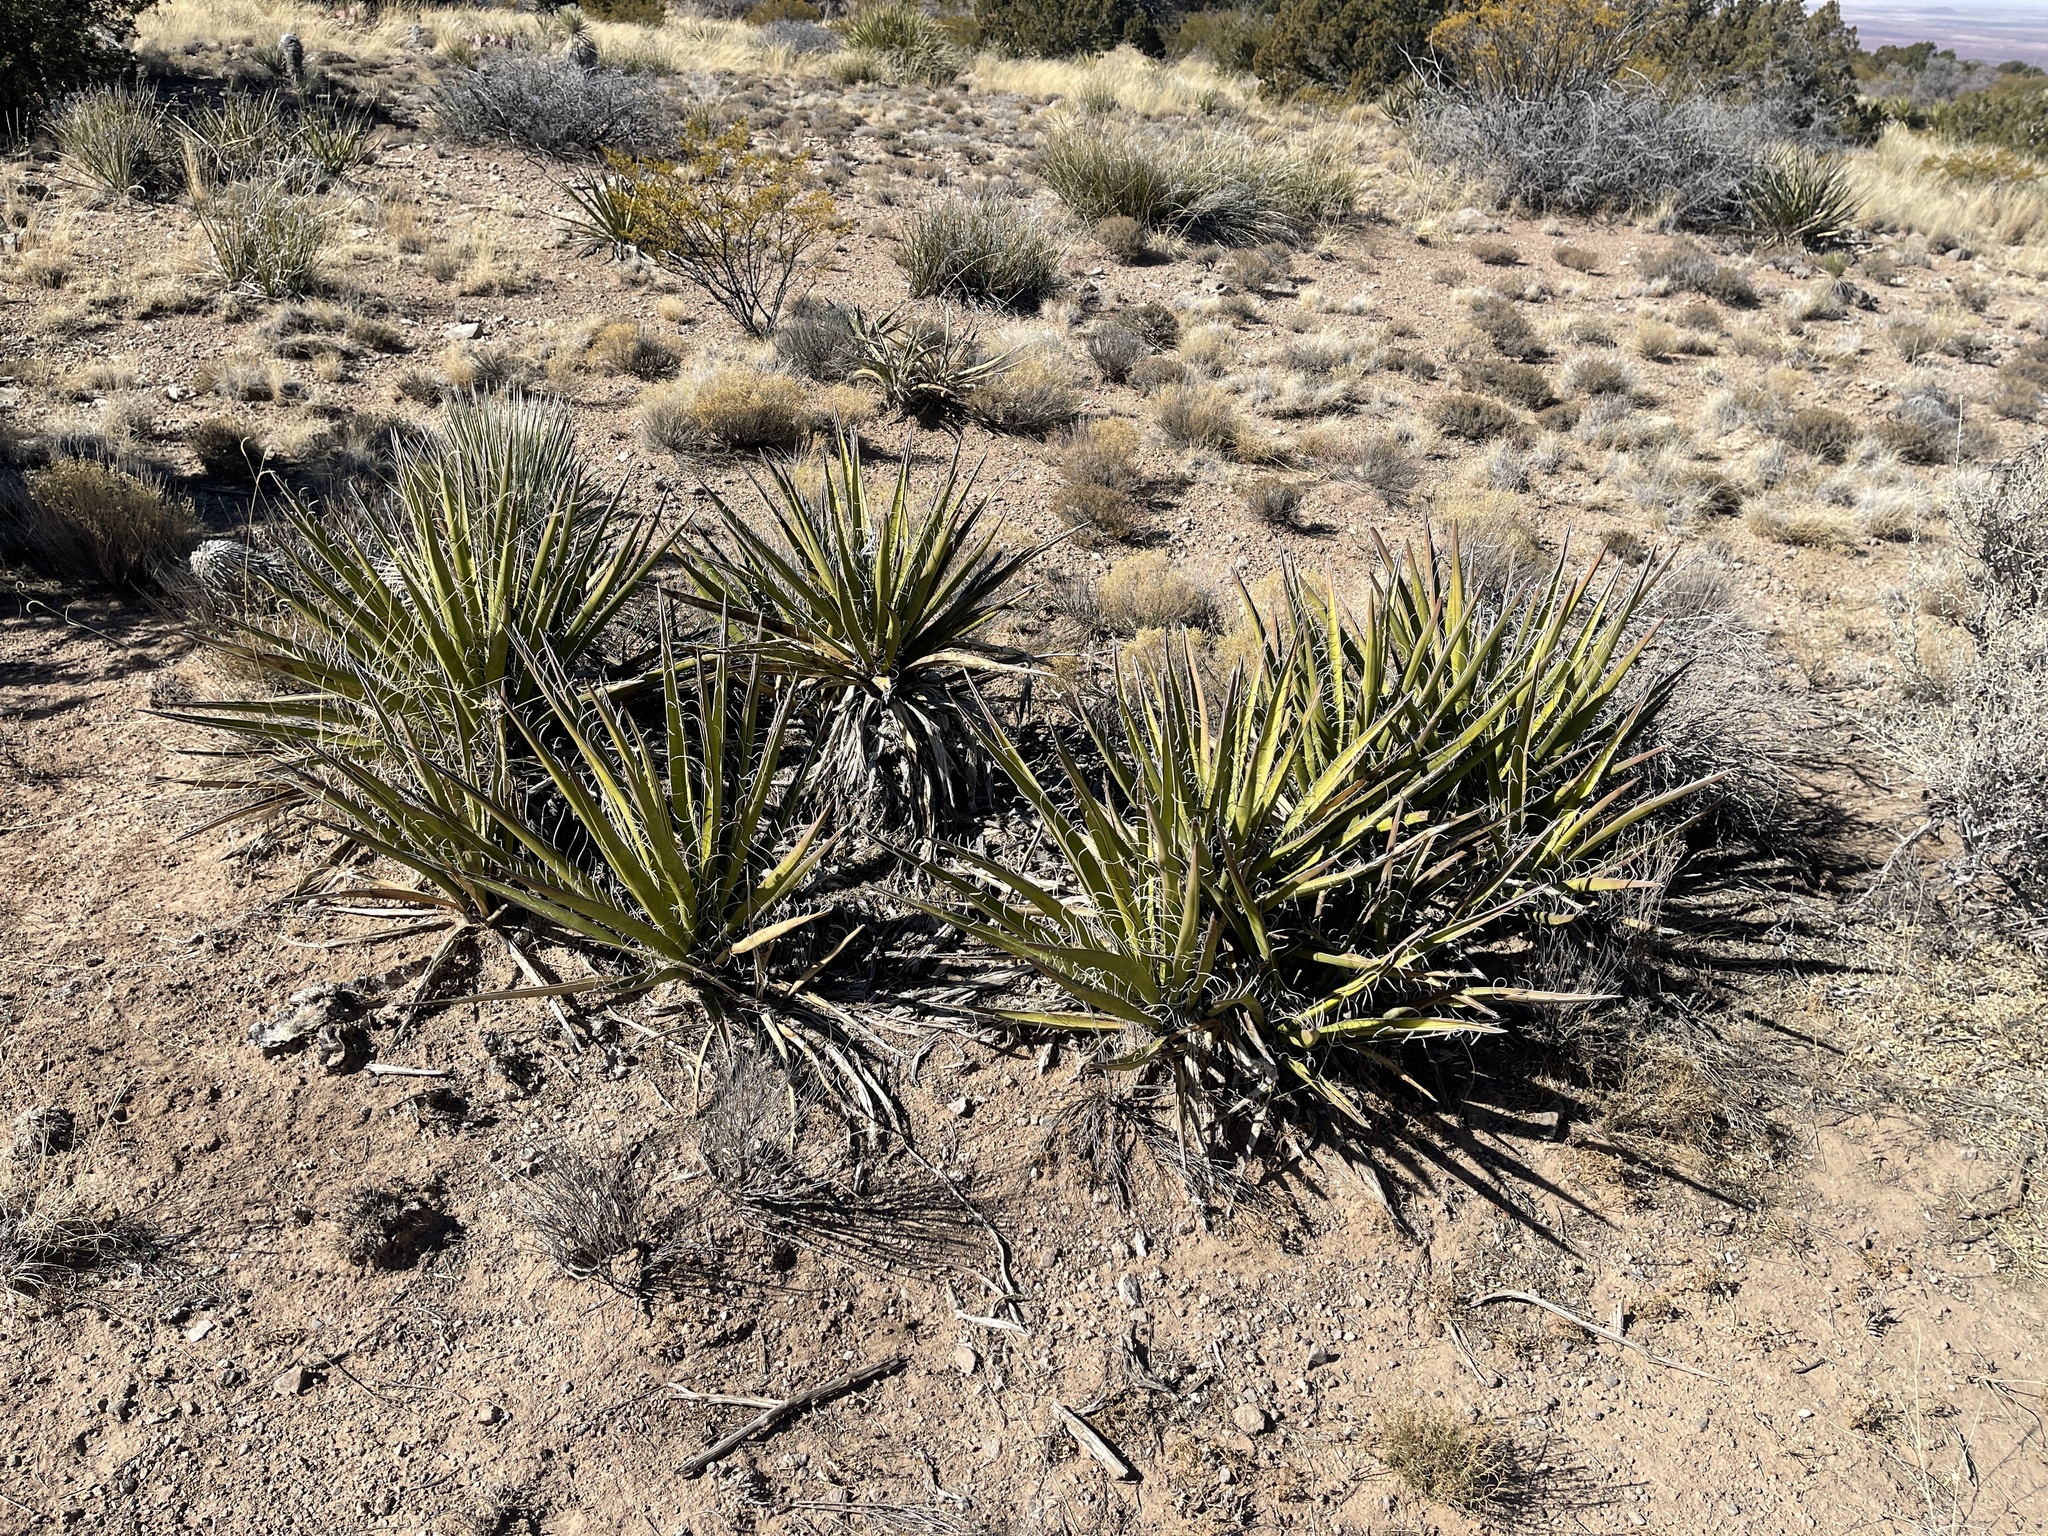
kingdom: Plantae
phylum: Tracheophyta
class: Liliopsida
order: Asparagales
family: Asparagaceae
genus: Yucca
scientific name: Yucca baccata
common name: Banana yucca
